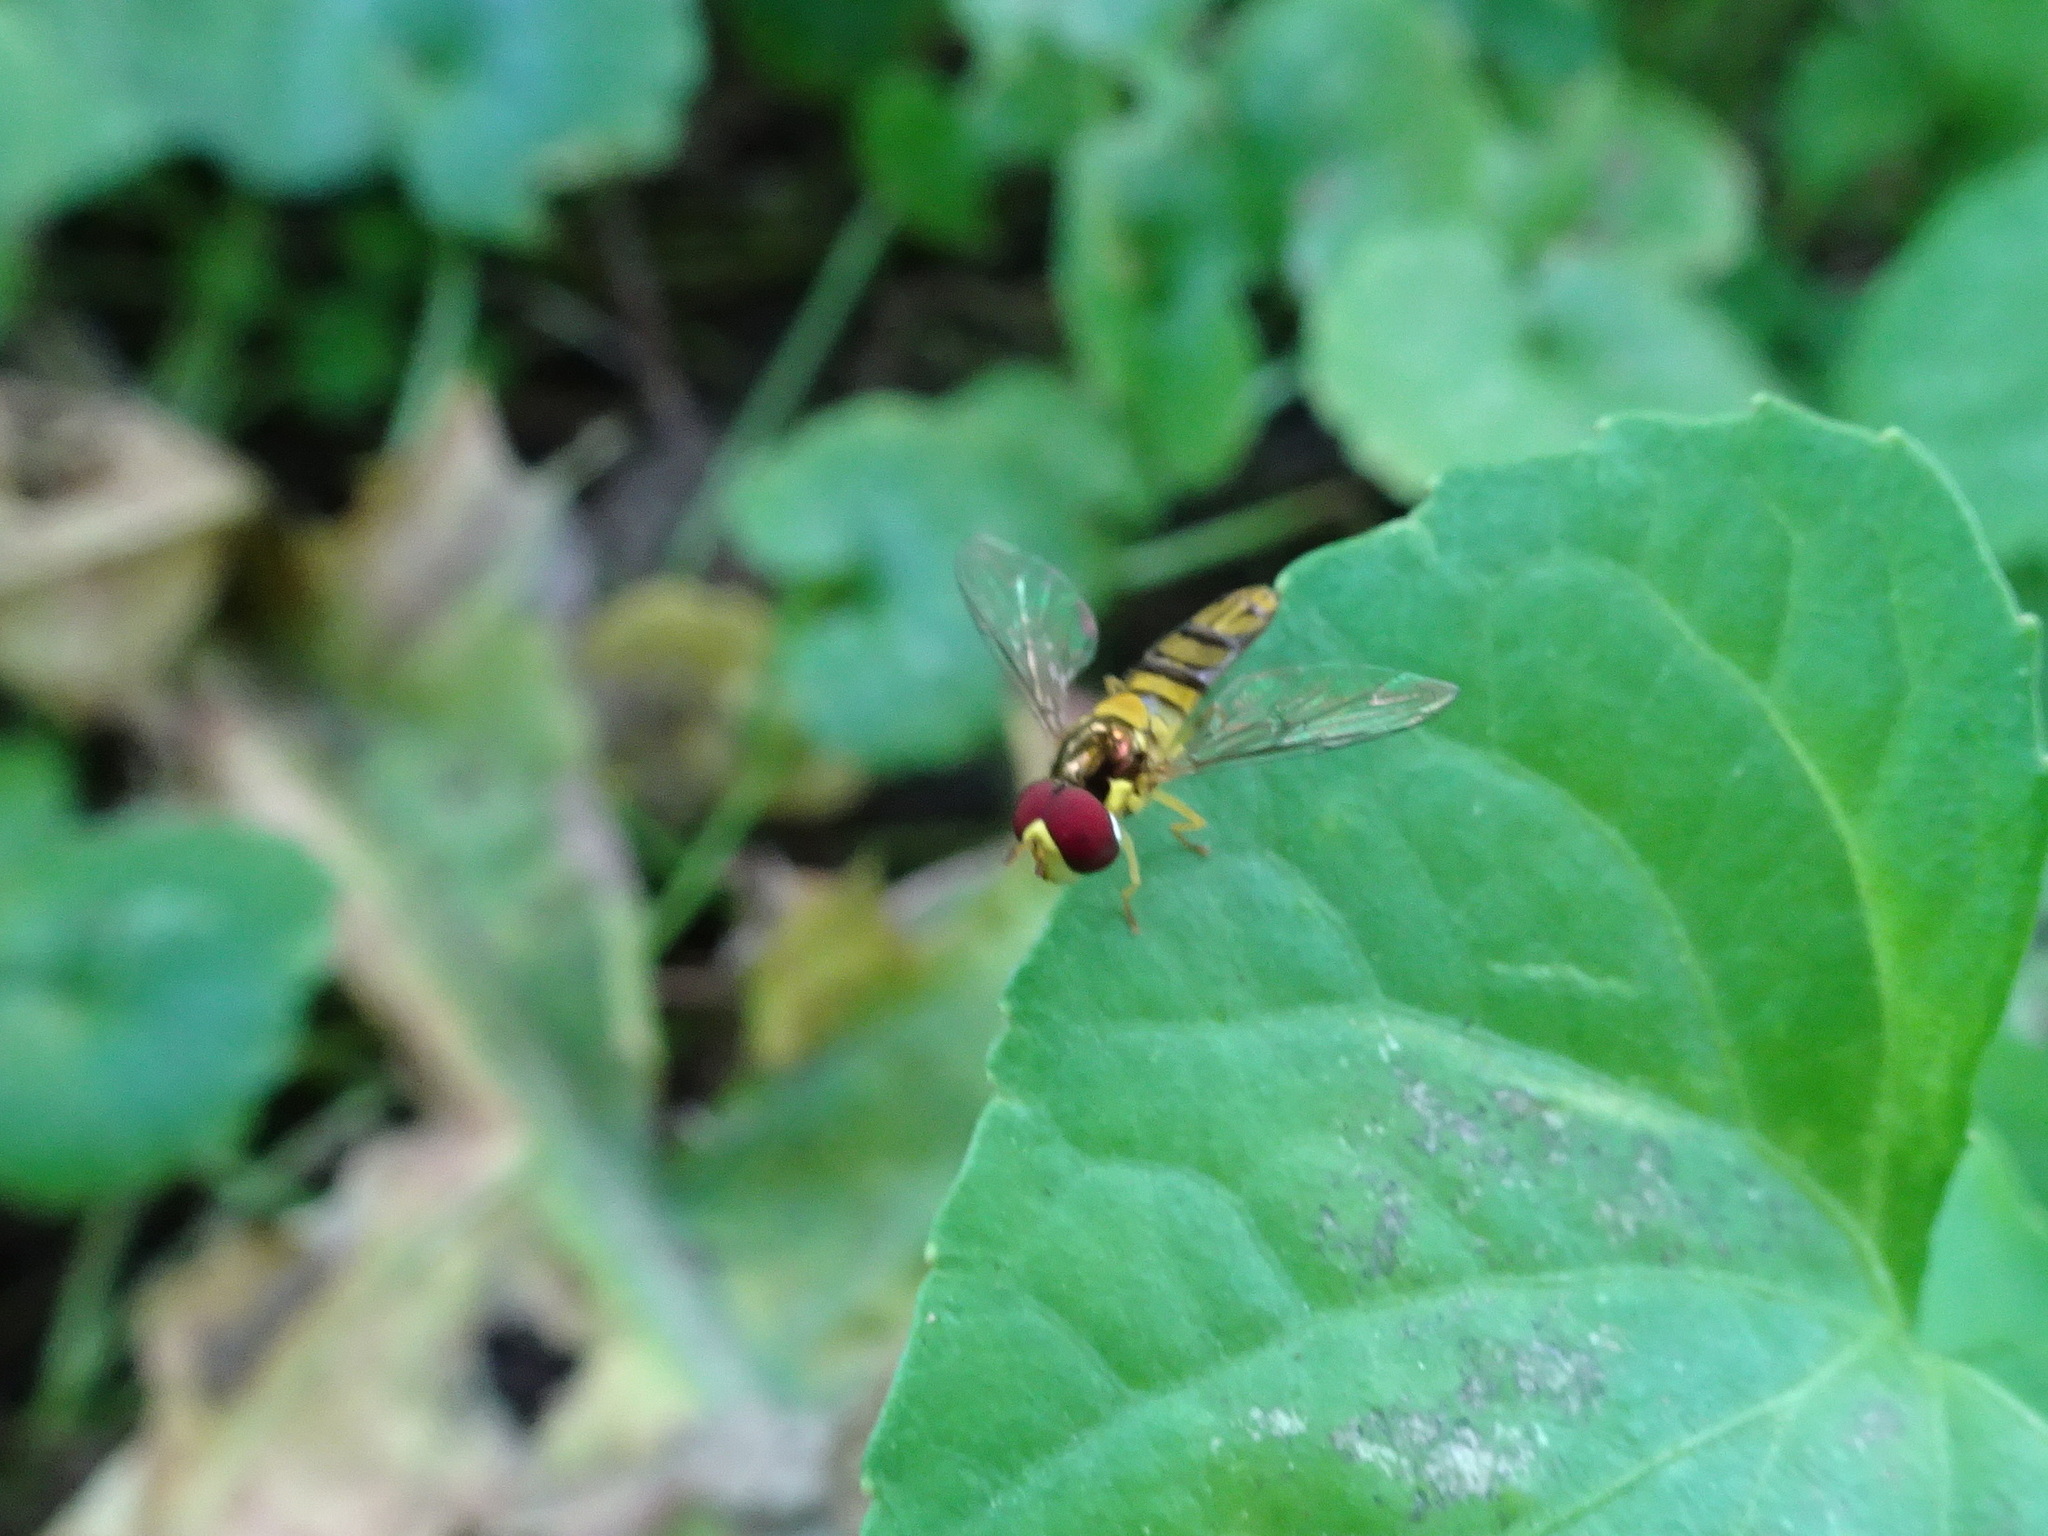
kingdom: Animalia
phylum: Arthropoda
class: Insecta
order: Diptera
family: Syrphidae
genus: Allograpta
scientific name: Allograpta obliqua
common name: Common oblique syrphid
